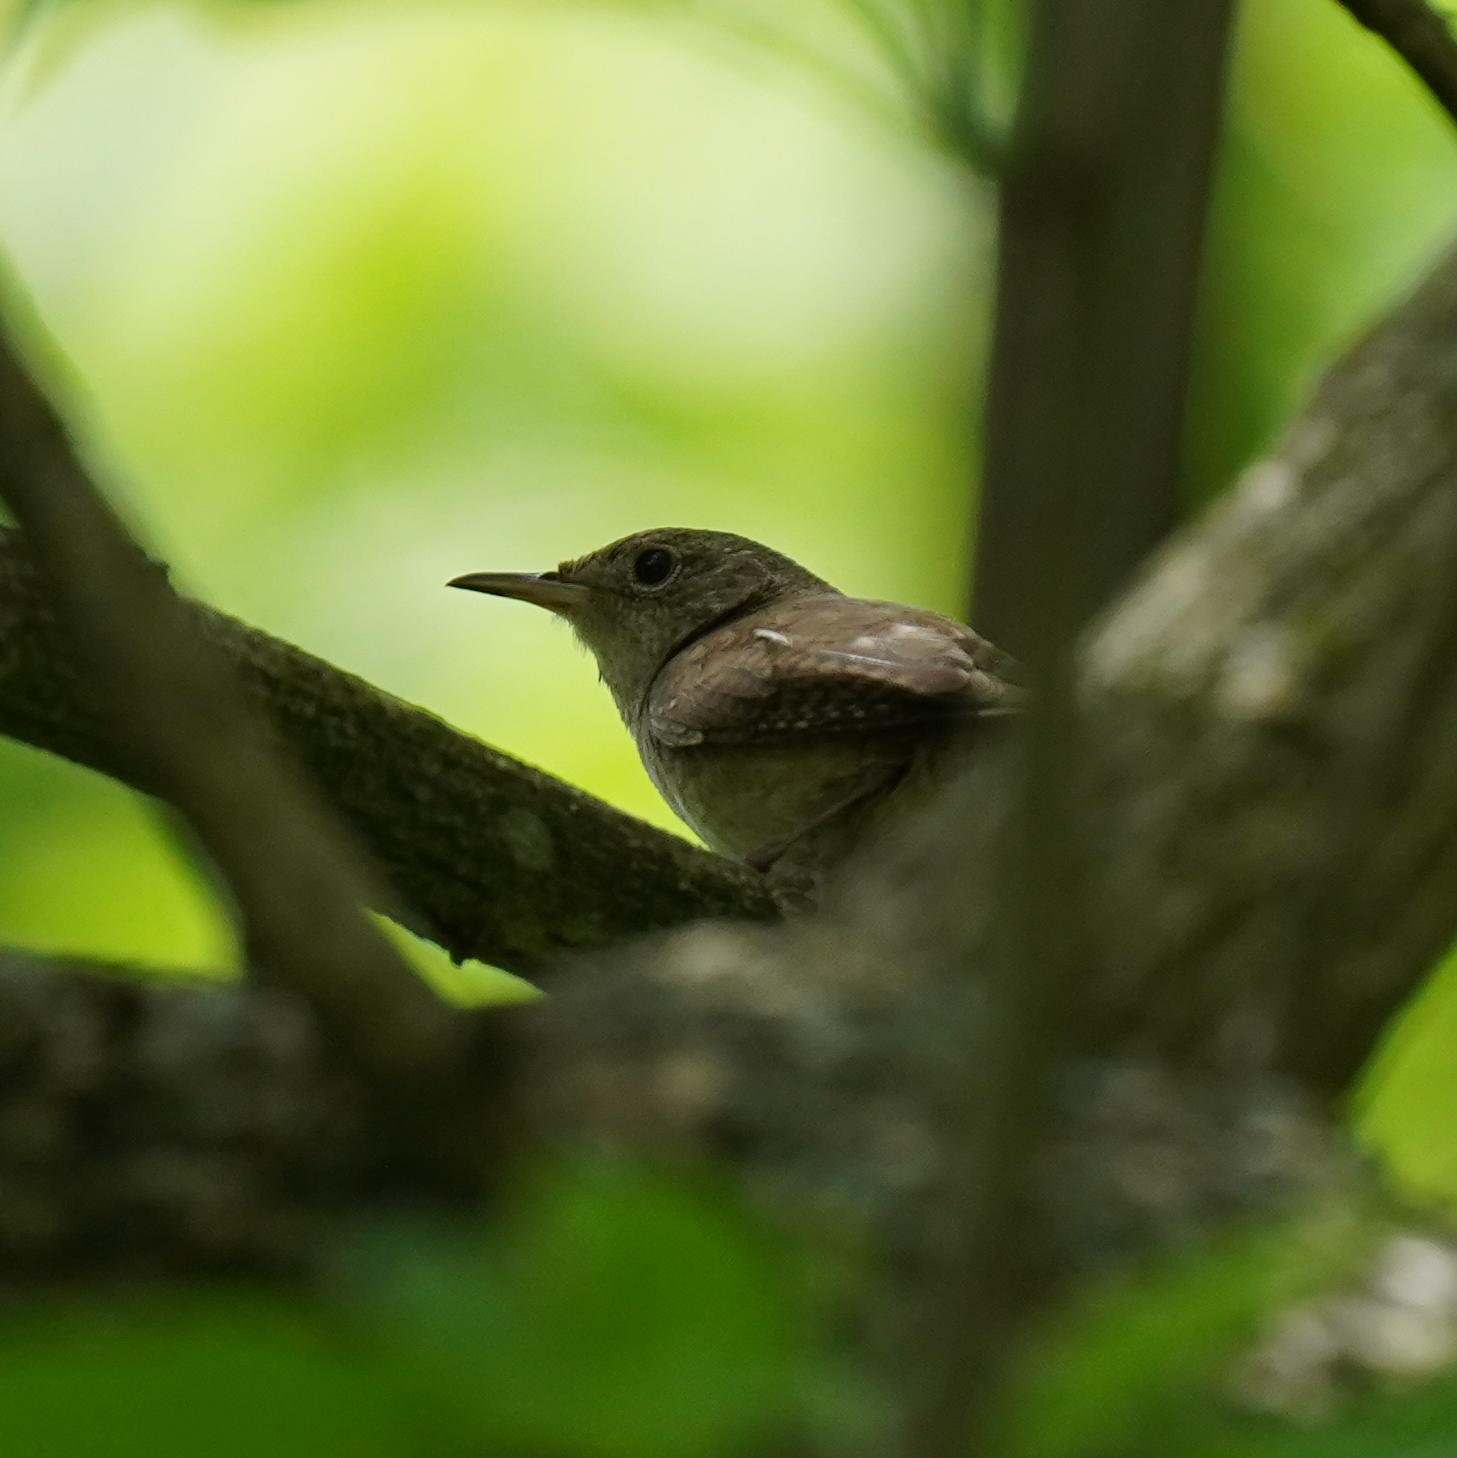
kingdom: Animalia
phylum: Chordata
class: Aves
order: Passeriformes
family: Troglodytidae
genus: Troglodytes
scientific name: Troglodytes aedon
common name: House wren
